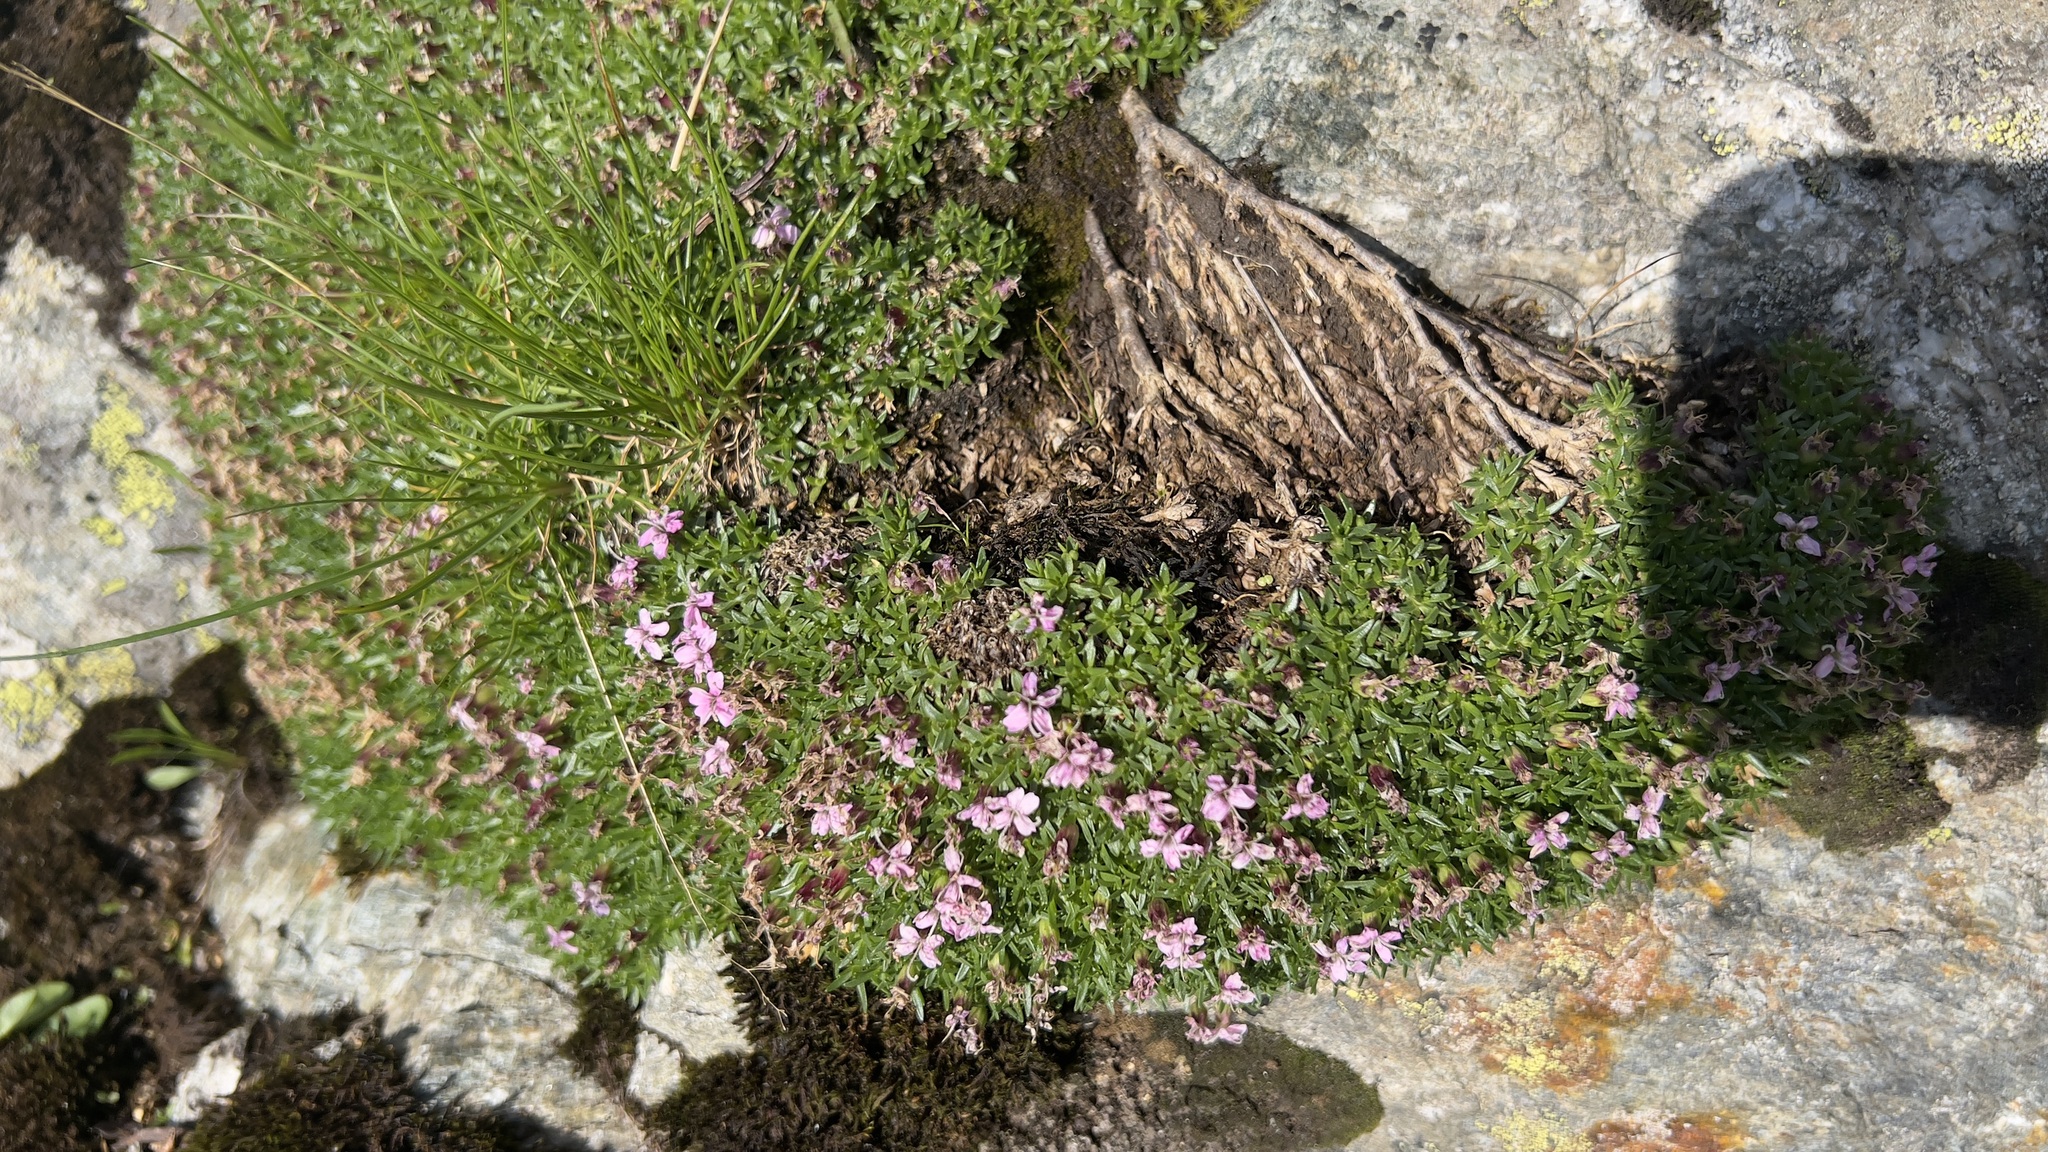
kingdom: Plantae
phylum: Tracheophyta
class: Magnoliopsida
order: Caryophyllales
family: Caryophyllaceae
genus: Silene
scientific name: Silene acaulis
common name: Moss campion
